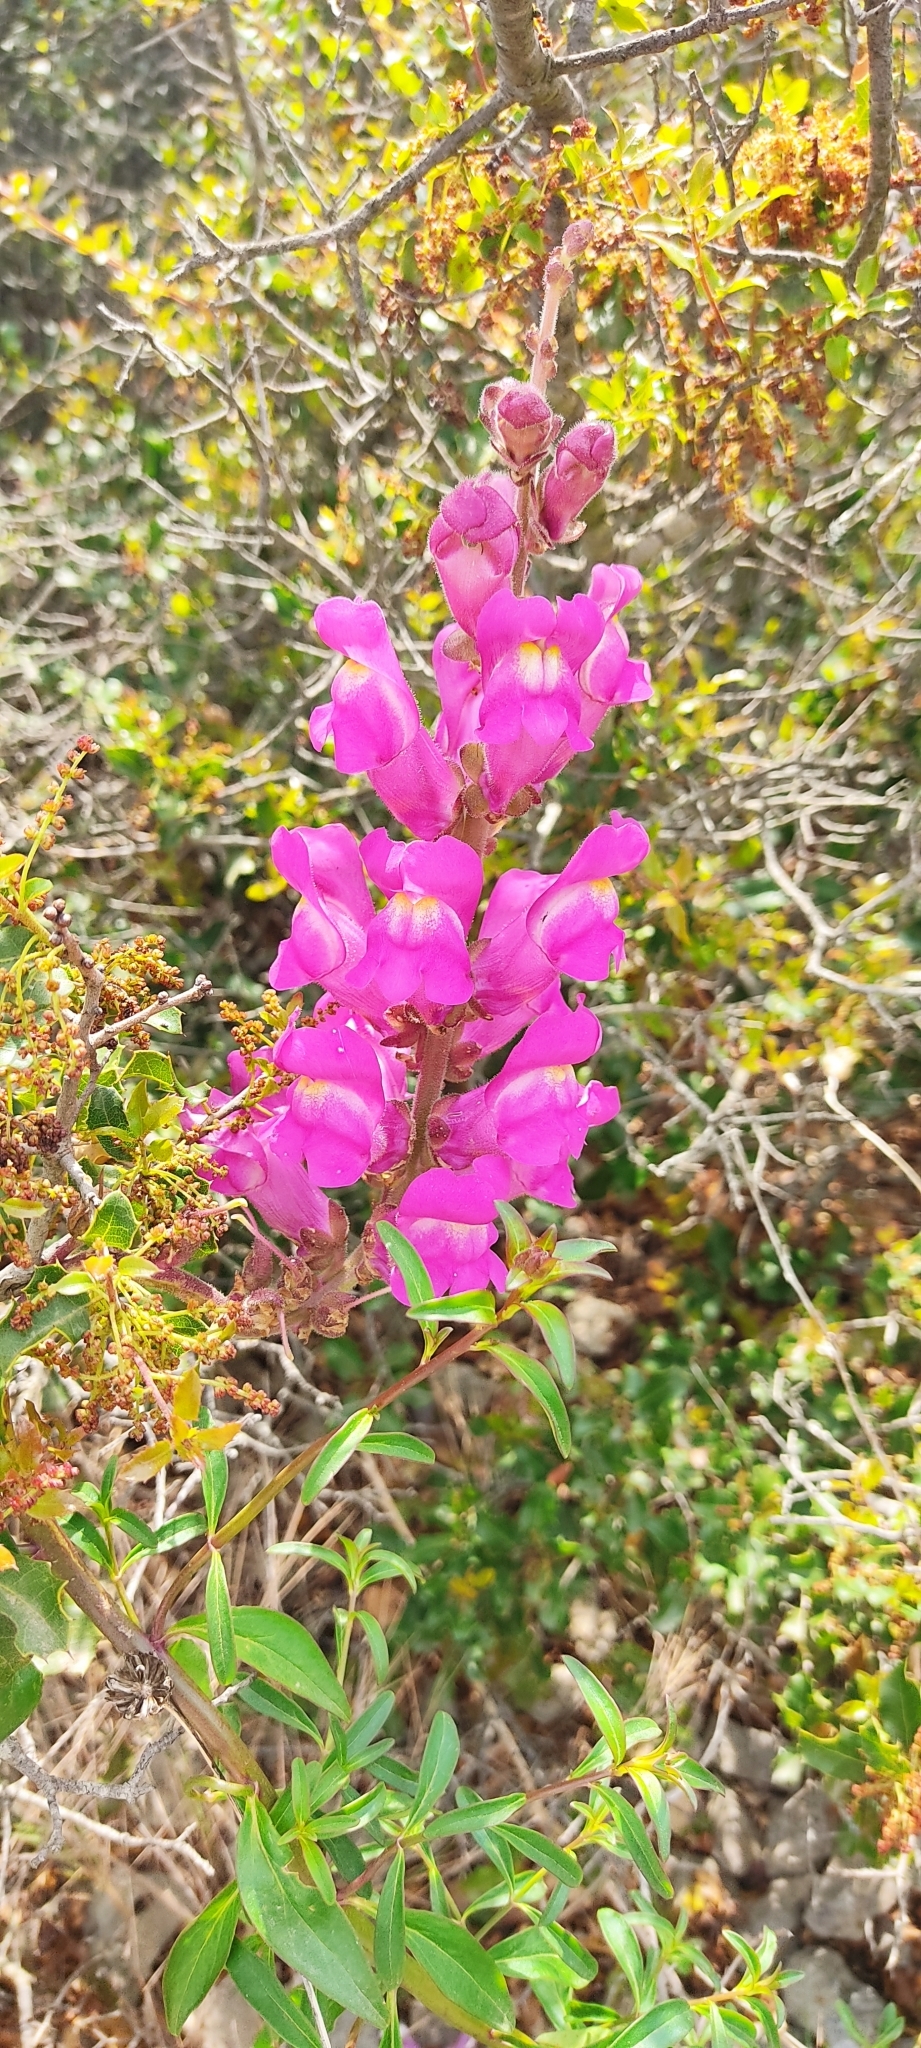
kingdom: Plantae
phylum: Tracheophyta
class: Magnoliopsida
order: Lamiales
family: Plantaginaceae
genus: Antirrhinum
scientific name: Antirrhinum majus
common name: Snapdragon
